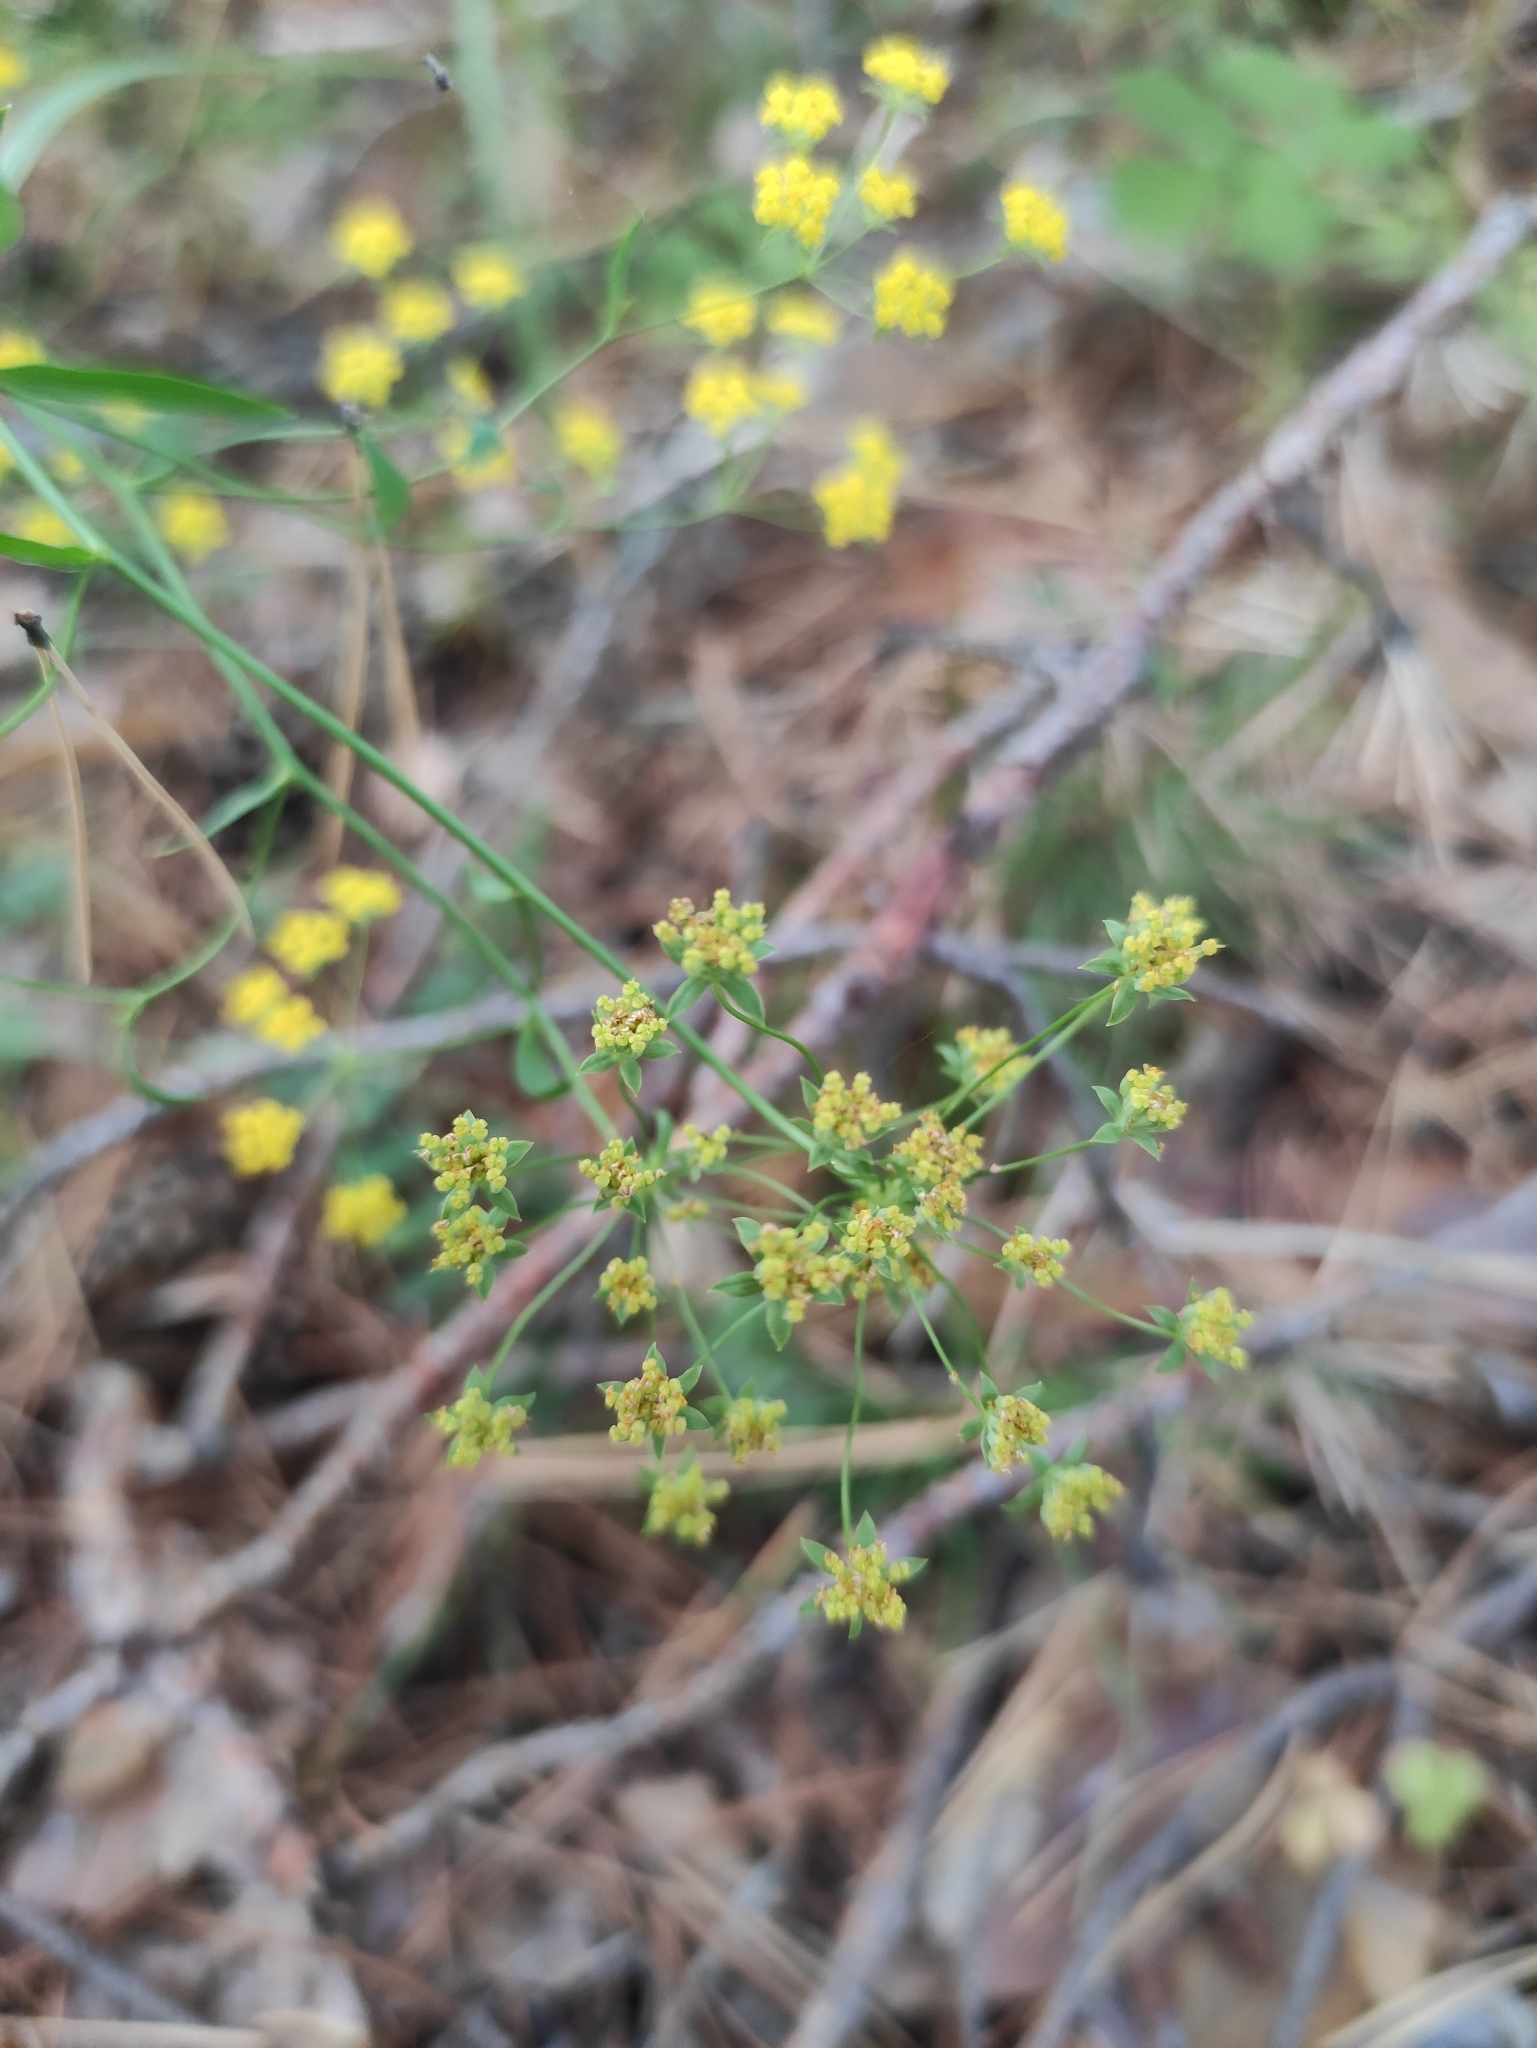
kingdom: Plantae
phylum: Tracheophyta
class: Magnoliopsida
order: Apiales
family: Apiaceae
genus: Bupleurum
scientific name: Bupleurum scorzonerifolium
